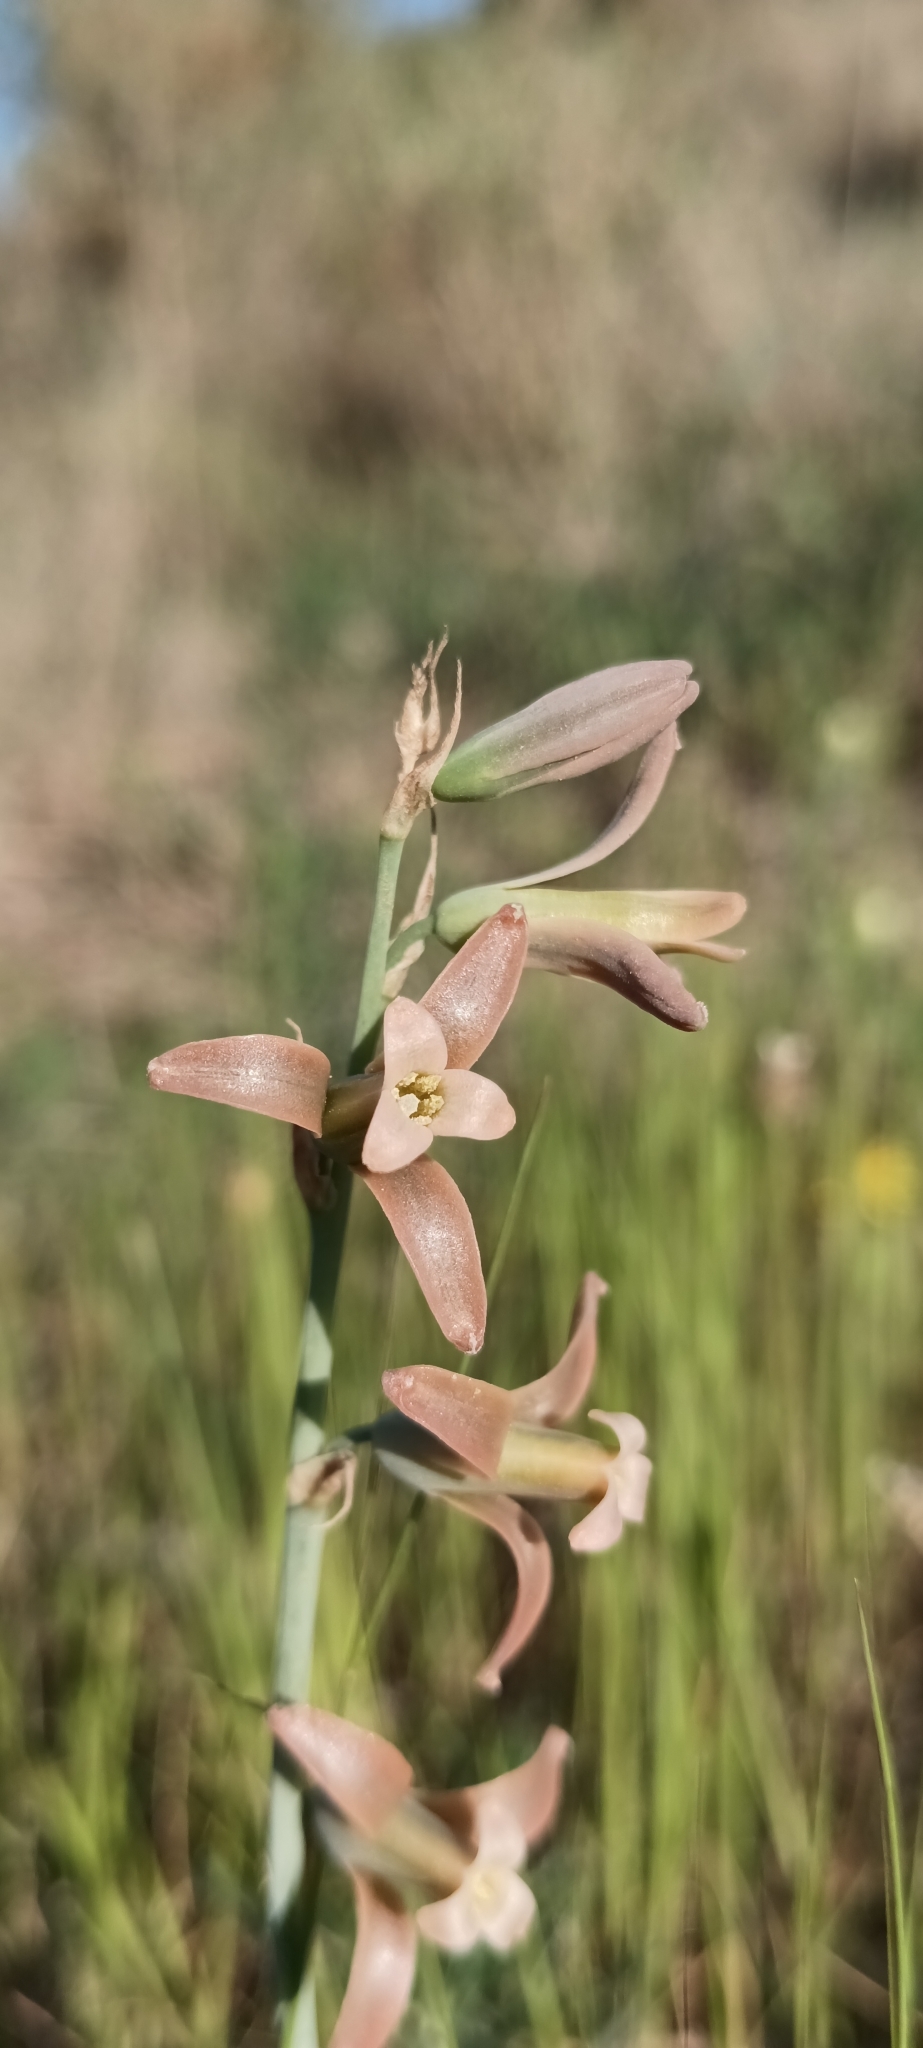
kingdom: Plantae
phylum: Tracheophyta
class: Liliopsida
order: Asparagales
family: Asparagaceae
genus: Dipcadi
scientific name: Dipcadi serotinum
